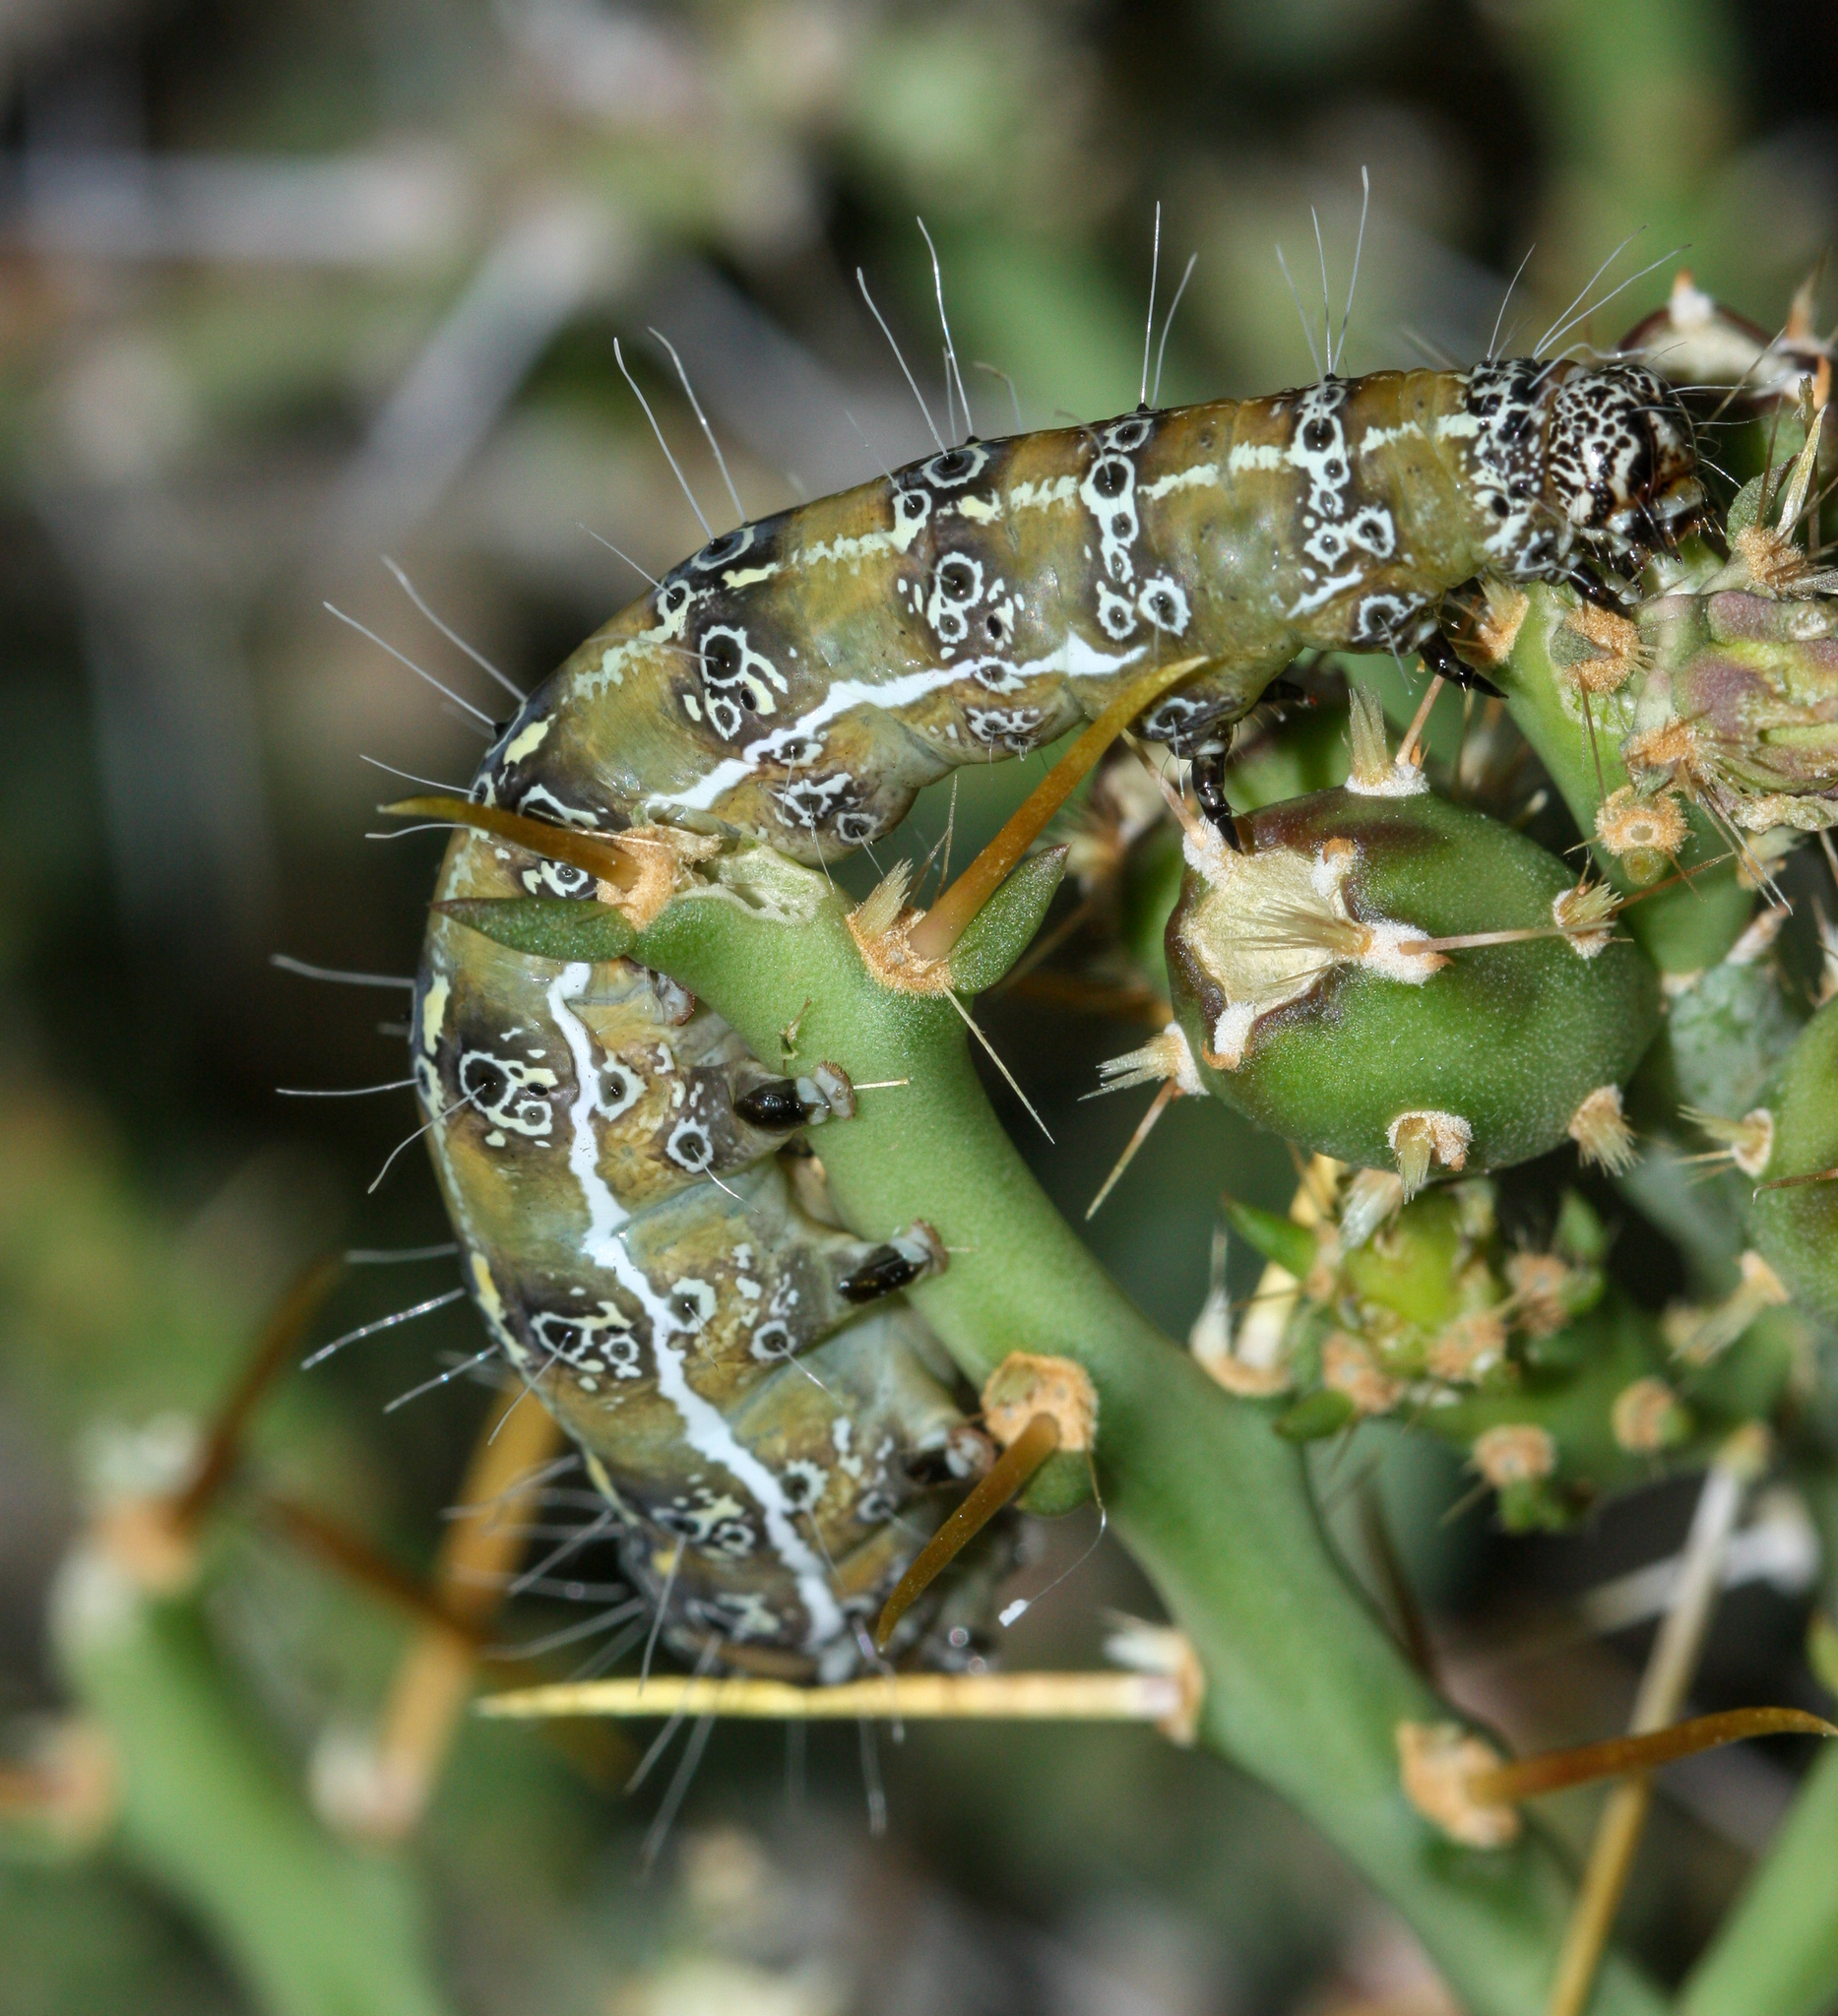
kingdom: Animalia
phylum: Arthropoda
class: Insecta
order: Lepidoptera
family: Noctuidae
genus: Euscirrhopterus
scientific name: Euscirrhopterus cosyra
